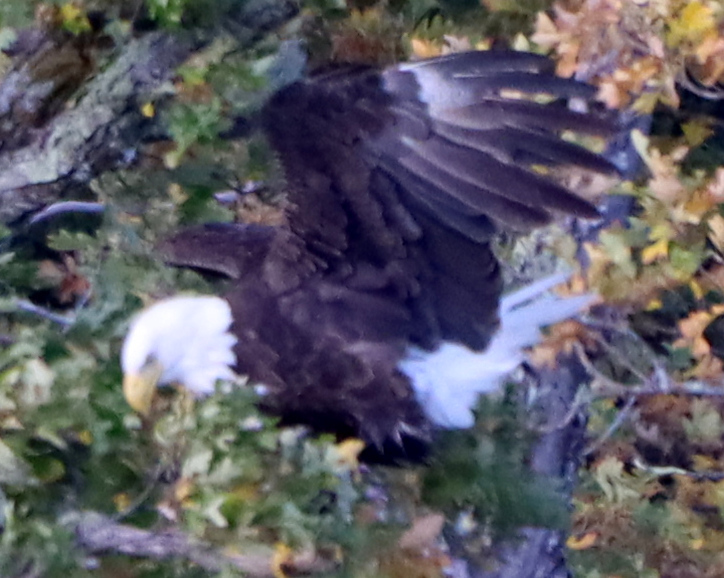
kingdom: Animalia
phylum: Chordata
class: Aves
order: Accipitriformes
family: Accipitridae
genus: Haliaeetus
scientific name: Haliaeetus leucocephalus
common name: Bald eagle
